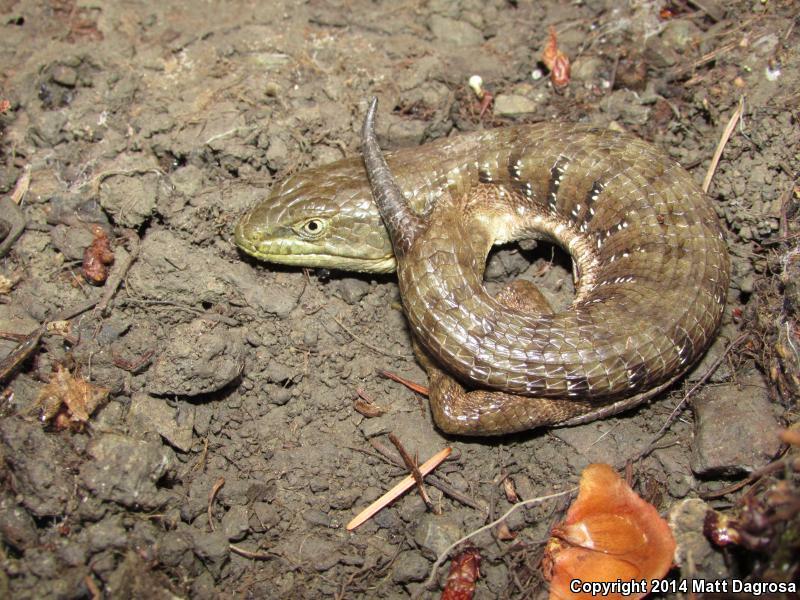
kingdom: Animalia
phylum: Chordata
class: Squamata
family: Anguidae
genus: Elgaria
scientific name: Elgaria multicarinata
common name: Southern alligator lizard
